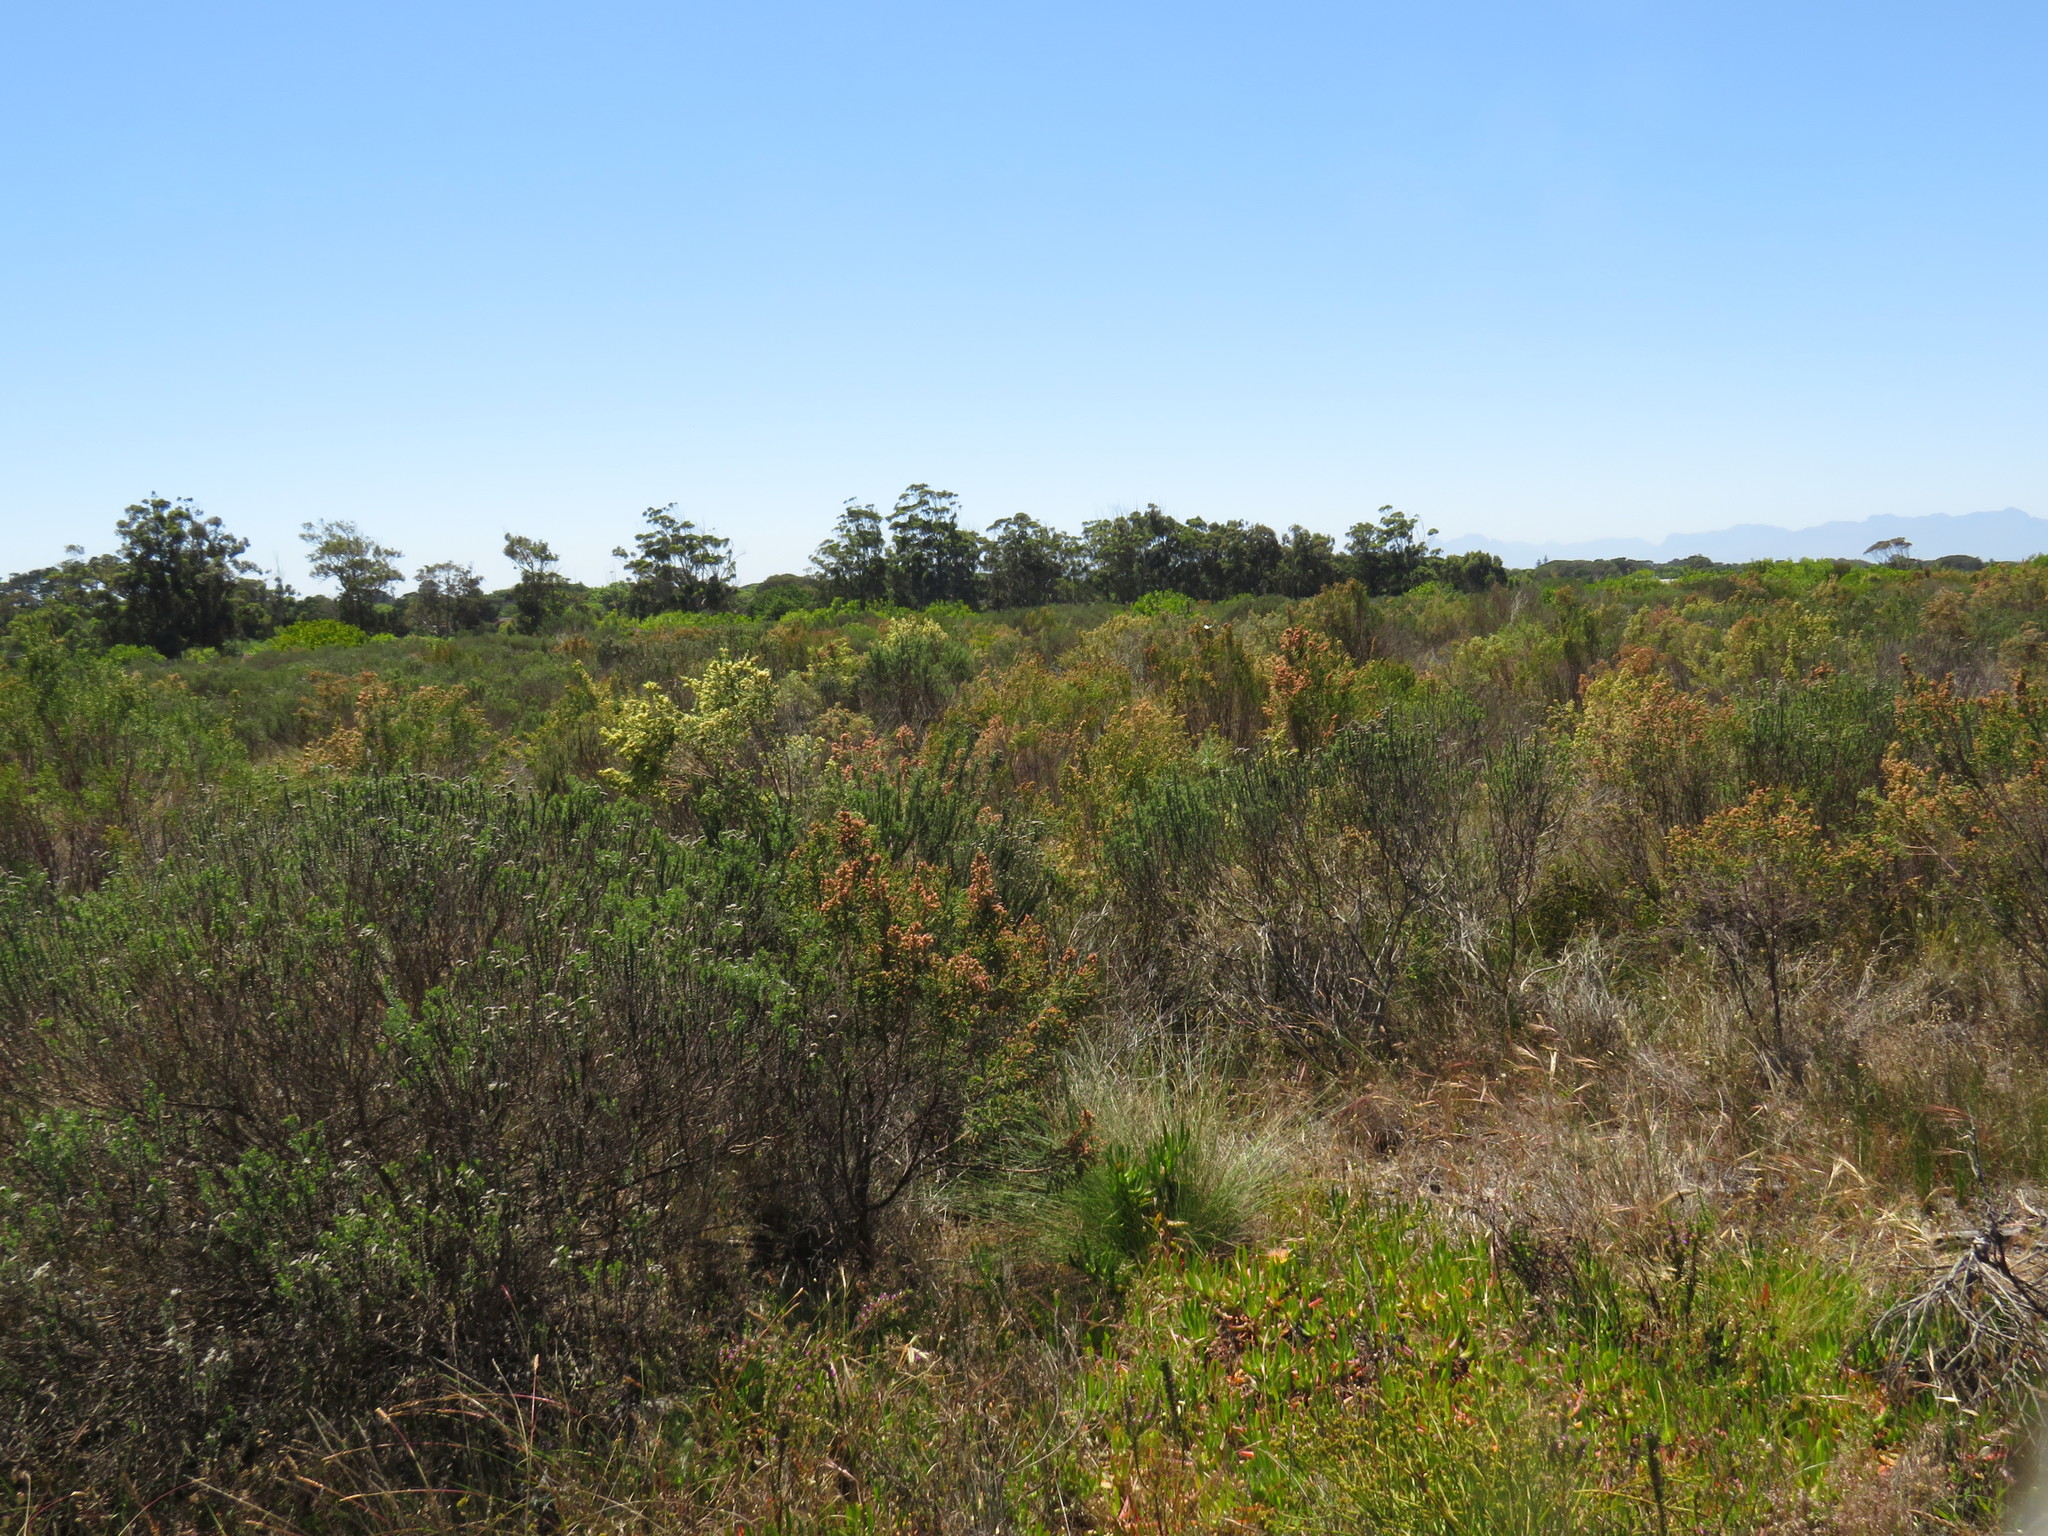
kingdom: Plantae
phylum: Tracheophyta
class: Magnoliopsida
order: Asterales
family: Asteraceae
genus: Metalasia
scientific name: Metalasia densa
